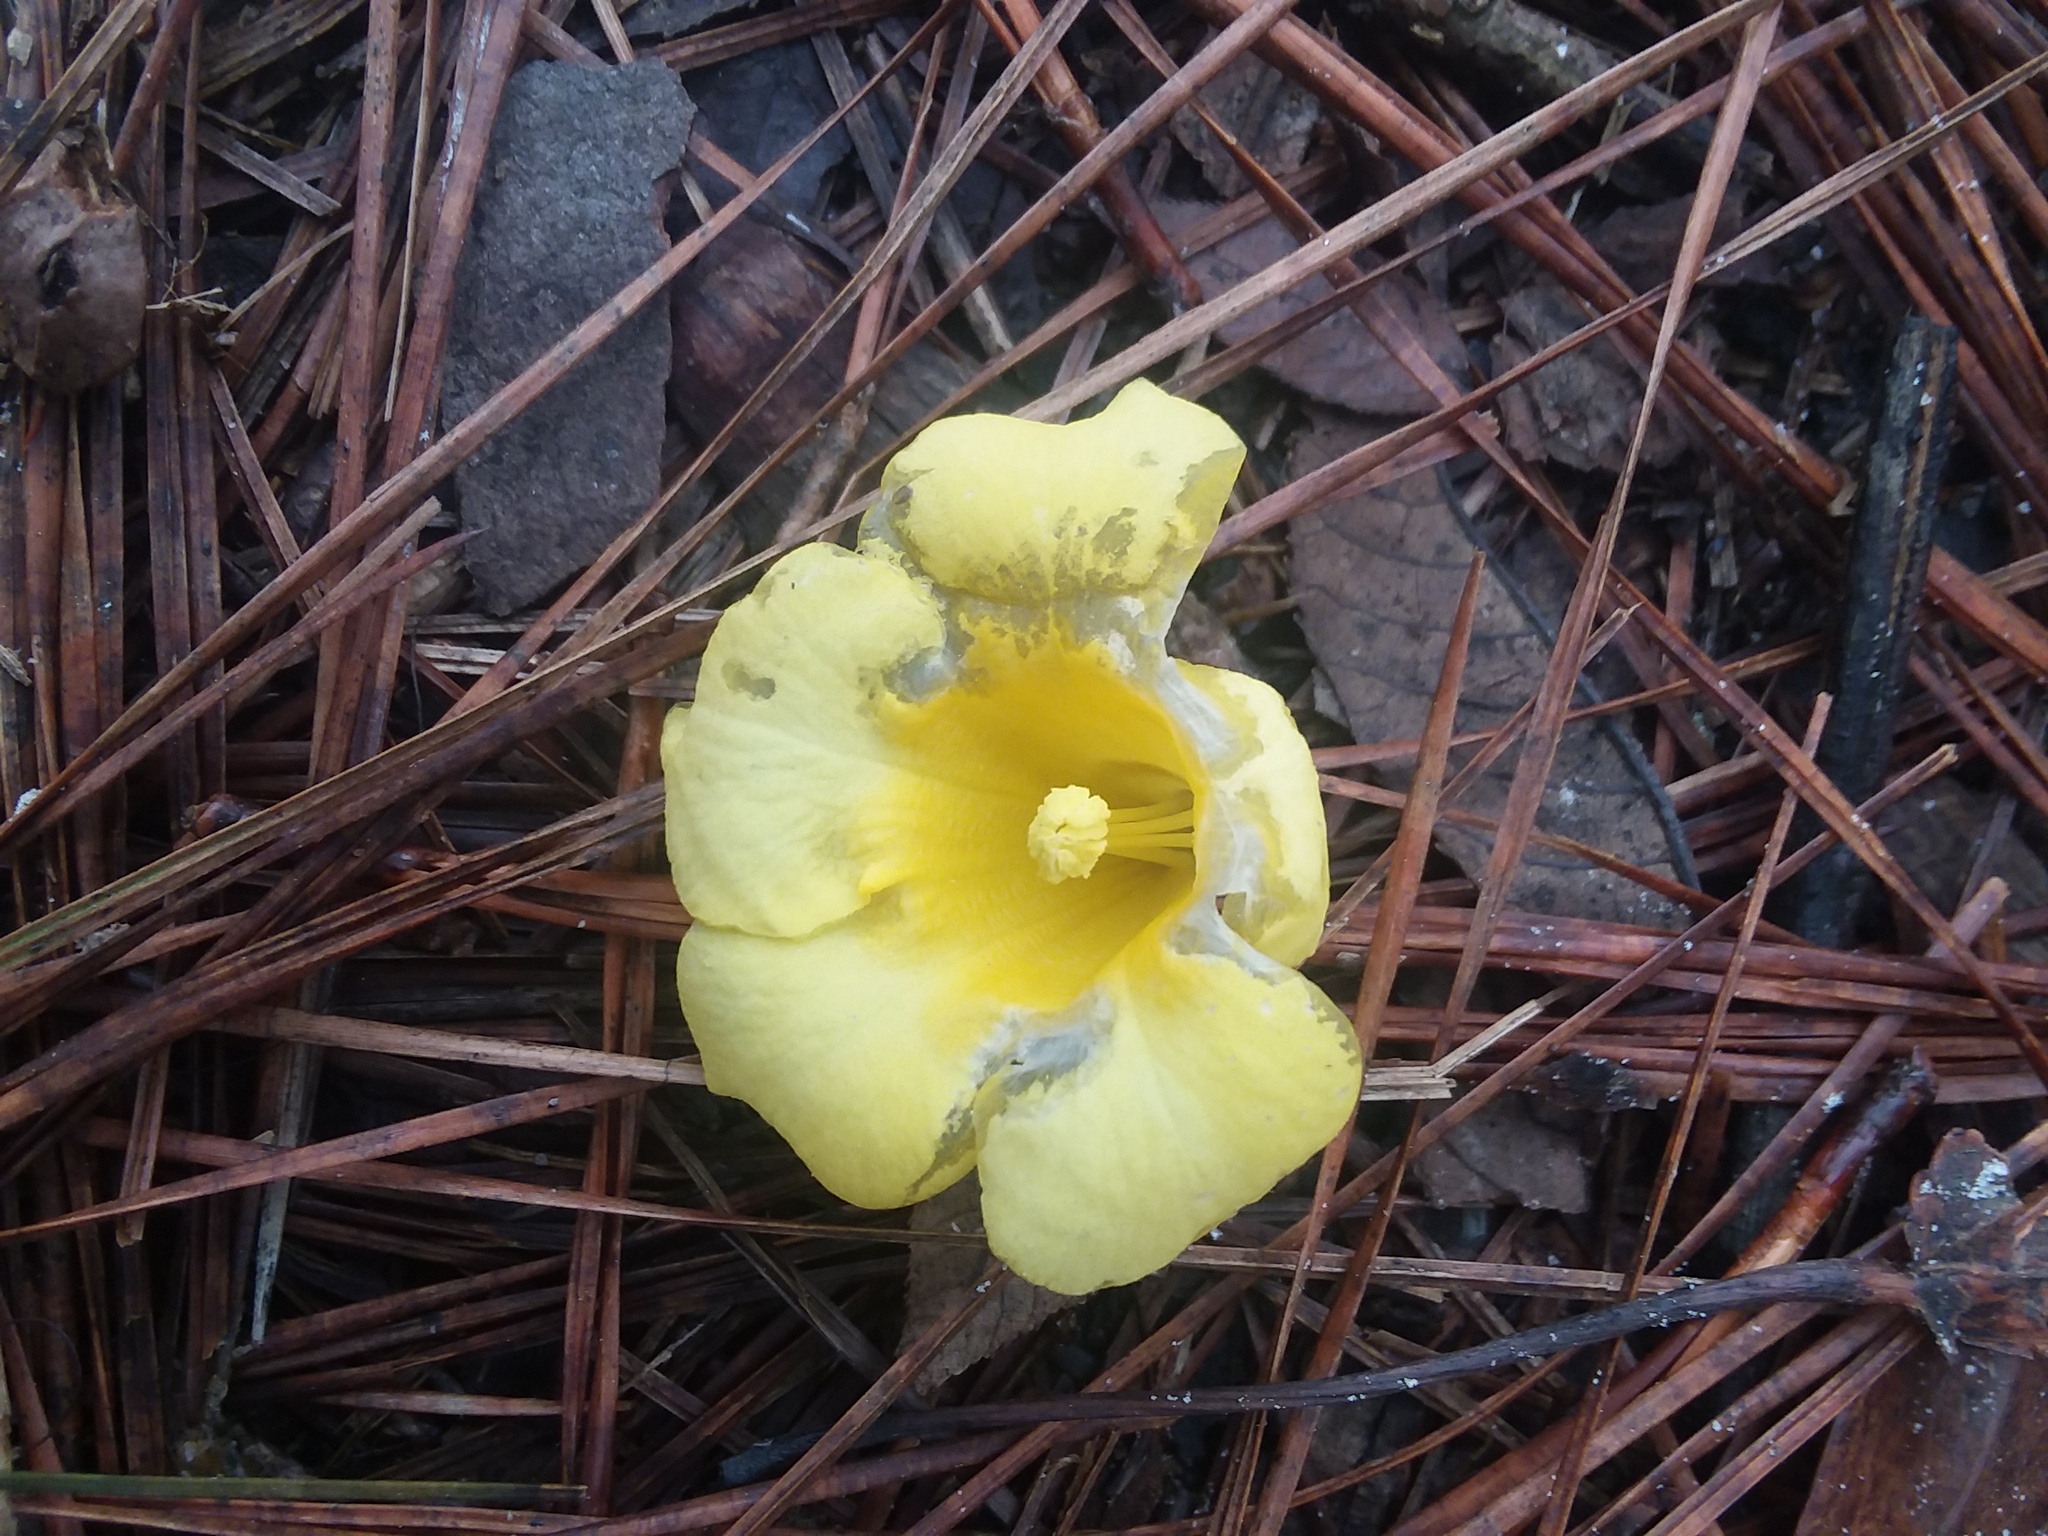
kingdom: Plantae
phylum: Tracheophyta
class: Magnoliopsida
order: Gentianales
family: Gelsemiaceae
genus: Gelsemium
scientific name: Gelsemium sempervirens
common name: Carolina-jasmine
